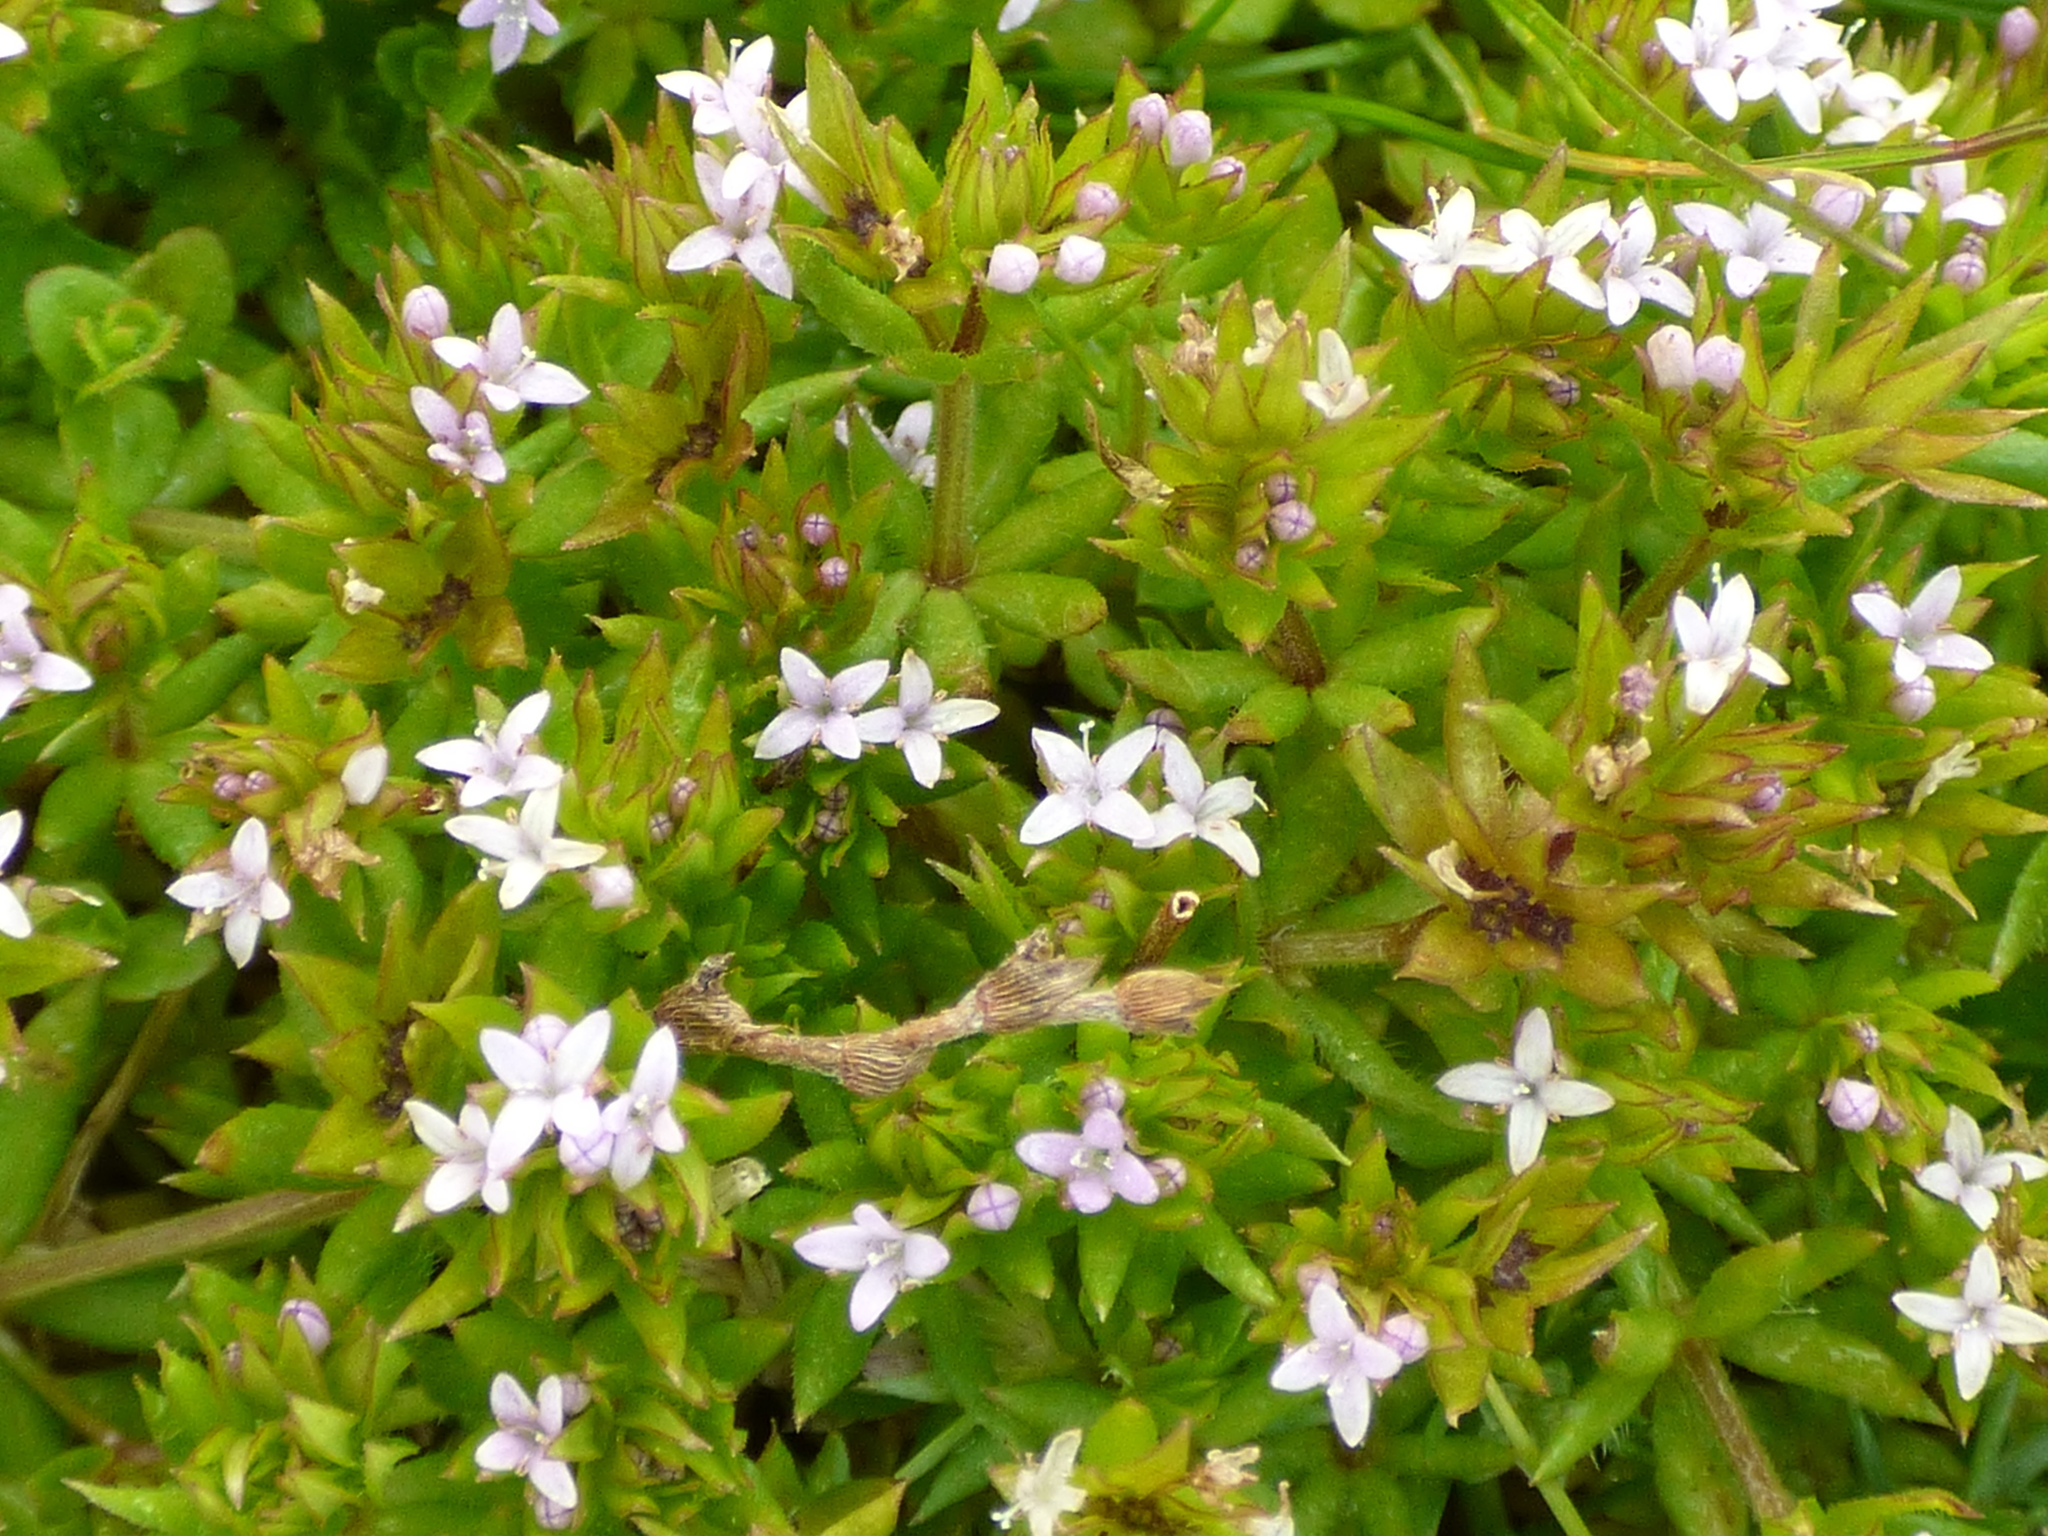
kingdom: Plantae
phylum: Tracheophyta
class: Magnoliopsida
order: Gentianales
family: Rubiaceae
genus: Sherardia
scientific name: Sherardia arvensis
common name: Field madder
